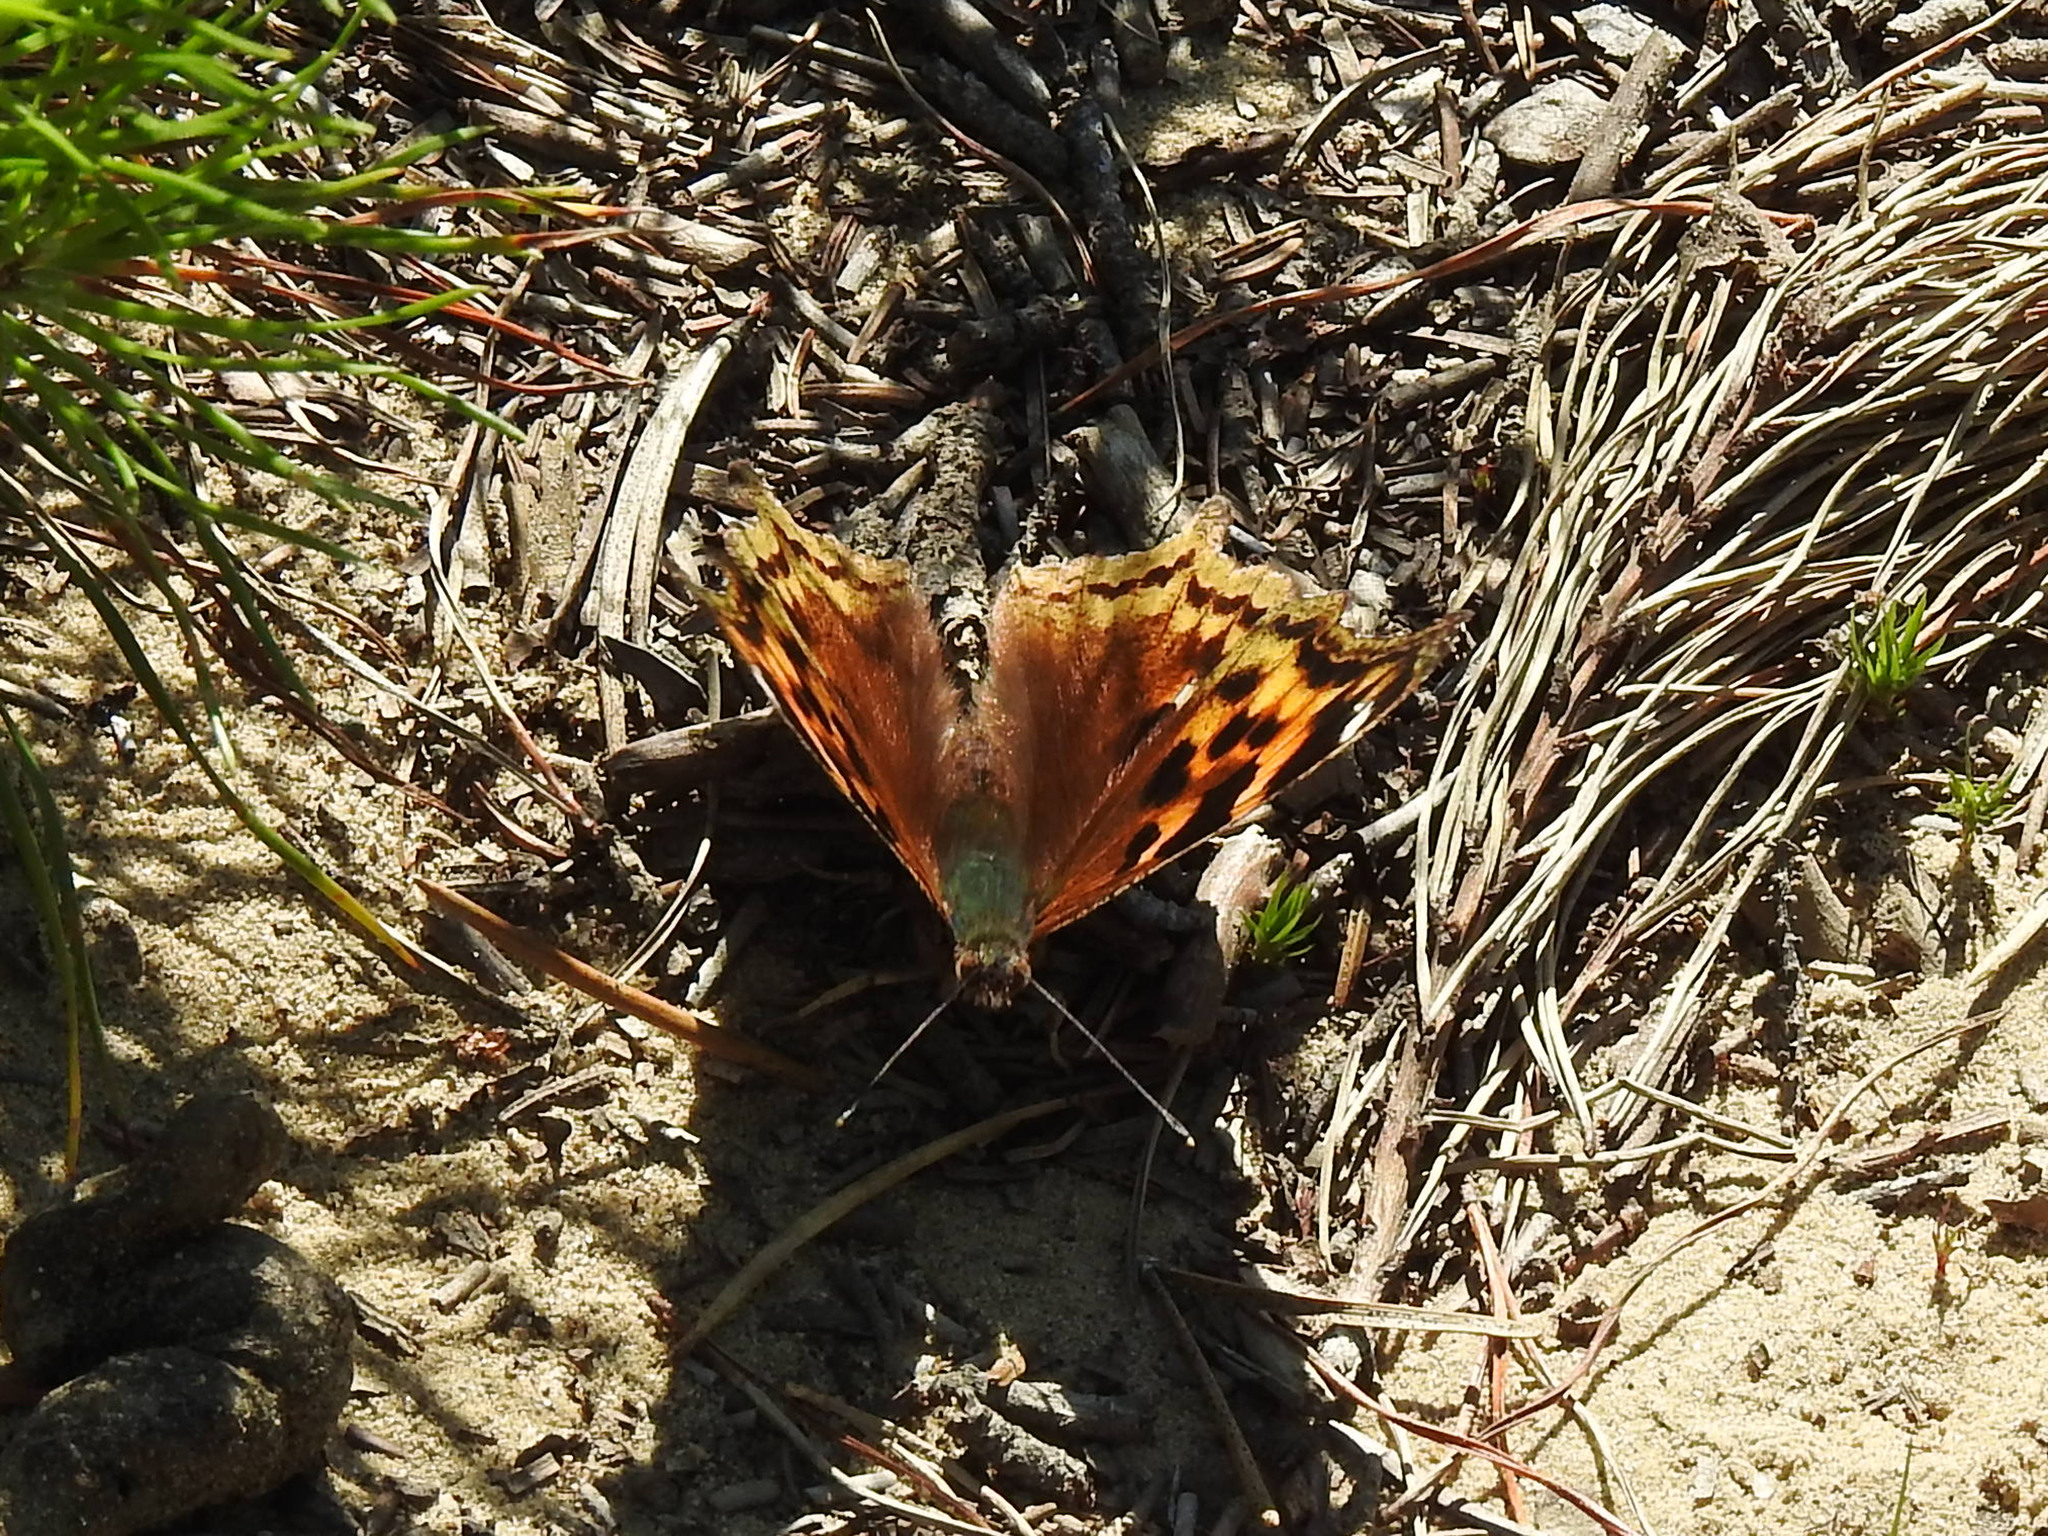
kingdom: Animalia
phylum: Arthropoda
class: Insecta
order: Lepidoptera
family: Nymphalidae
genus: Polygonia
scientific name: Polygonia vaualbum
